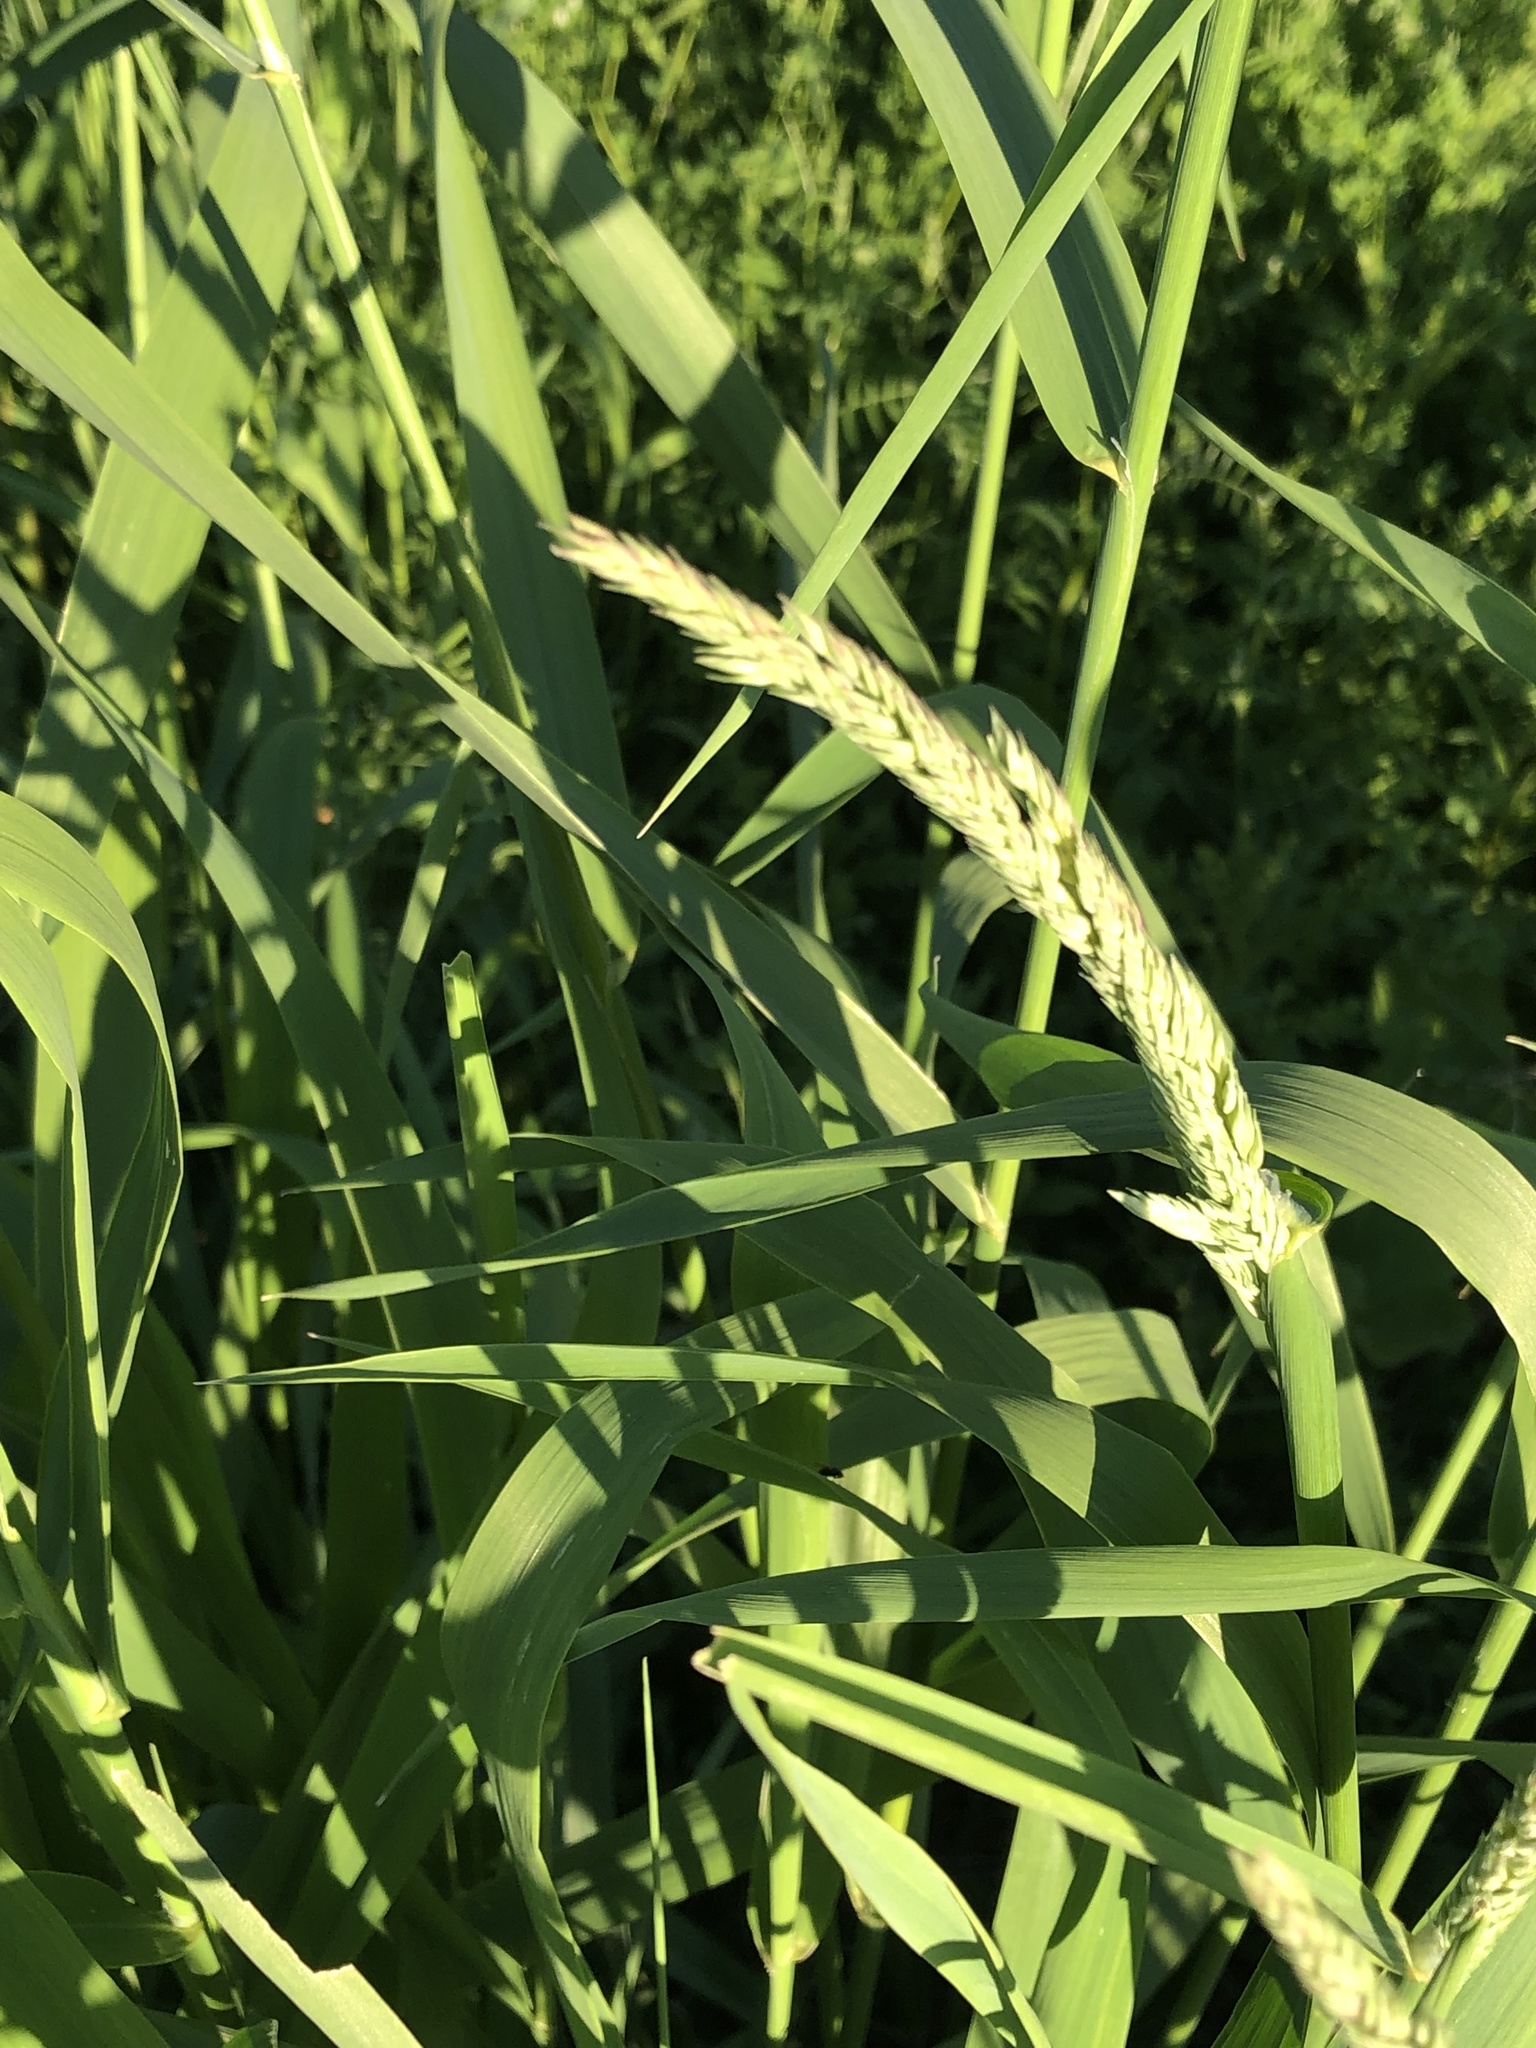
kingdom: Plantae
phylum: Tracheophyta
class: Liliopsida
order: Poales
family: Poaceae
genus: Phalaris
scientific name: Phalaris arundinacea
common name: Reed canary-grass
